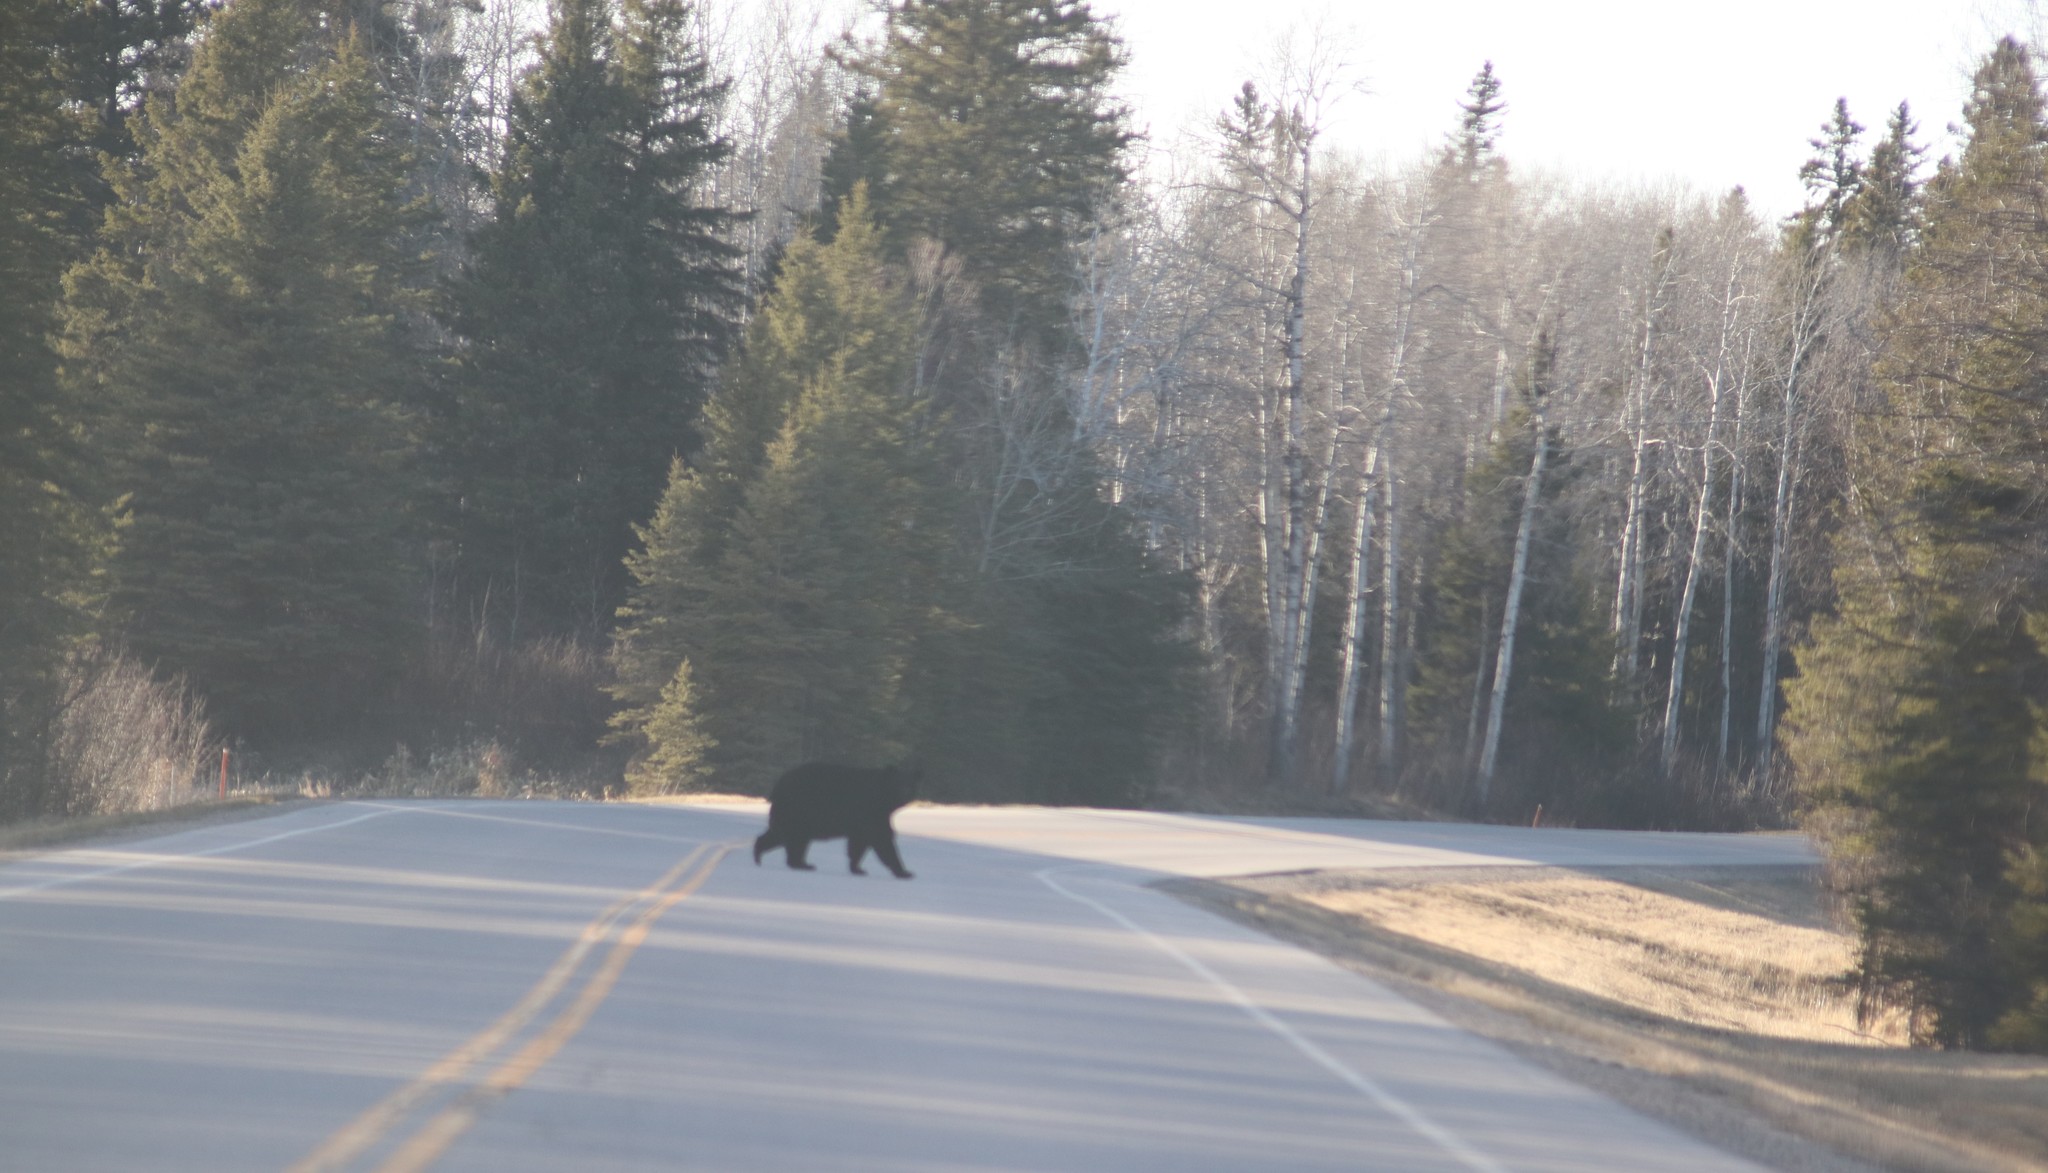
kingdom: Animalia
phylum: Chordata
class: Mammalia
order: Carnivora
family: Ursidae
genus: Ursus
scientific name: Ursus americanus
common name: American black bear
